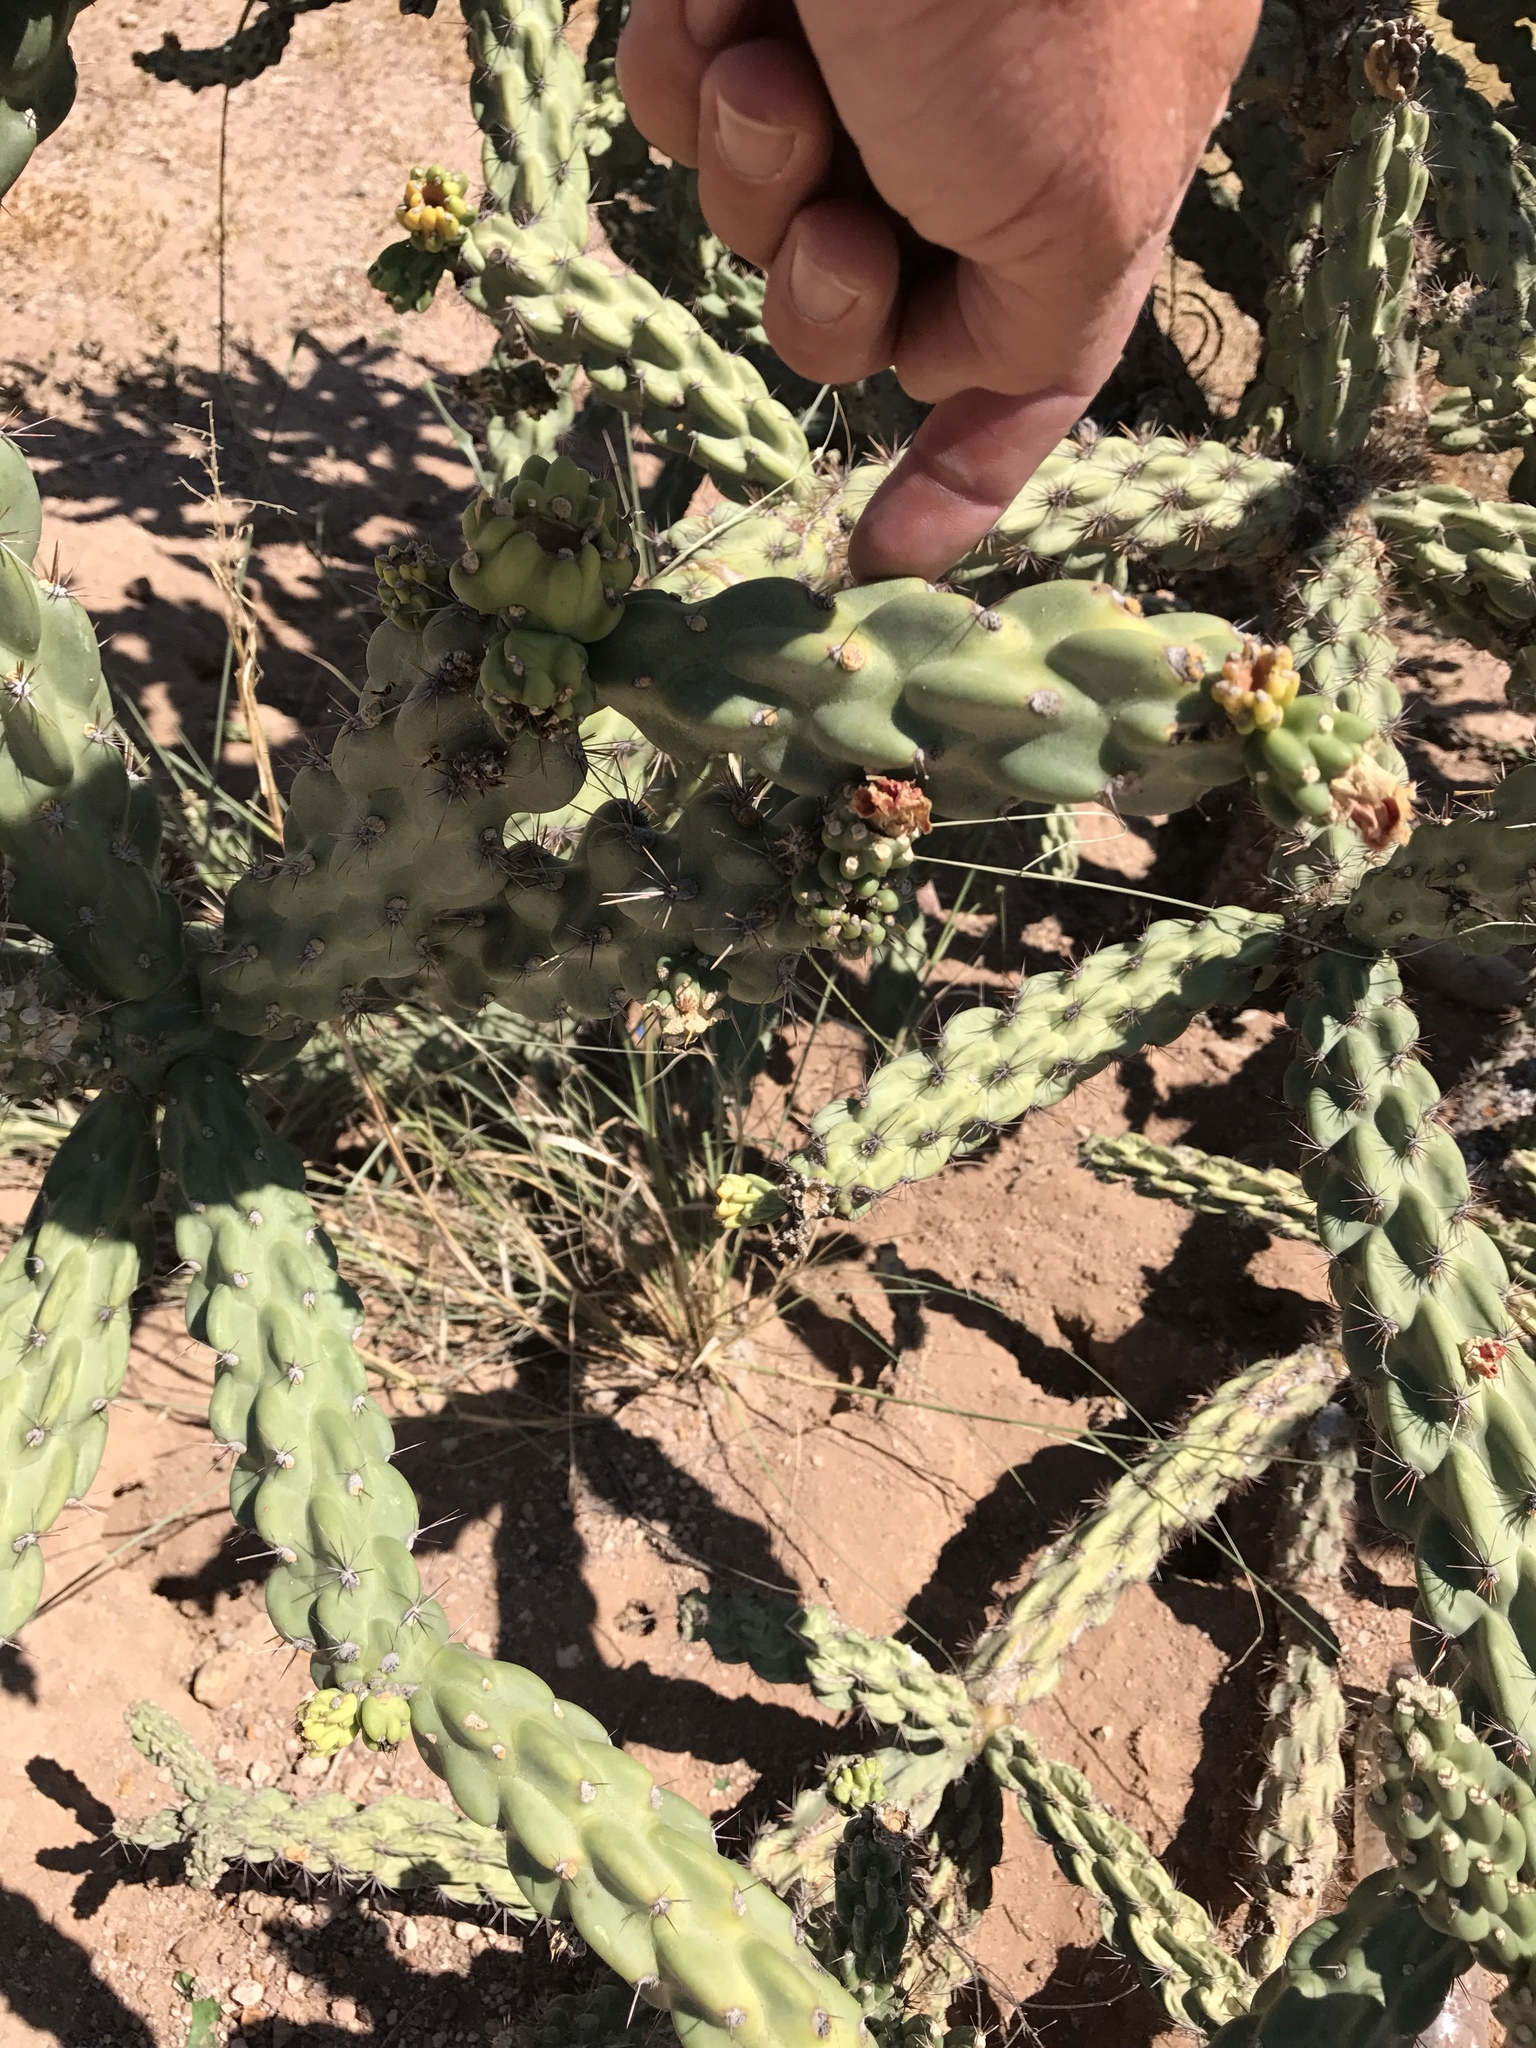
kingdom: Plantae
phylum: Tracheophyta
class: Magnoliopsida
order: Caryophyllales
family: Cactaceae
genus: Cylindropuntia
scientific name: Cylindropuntia imbricata
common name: Candelabrum cactus
